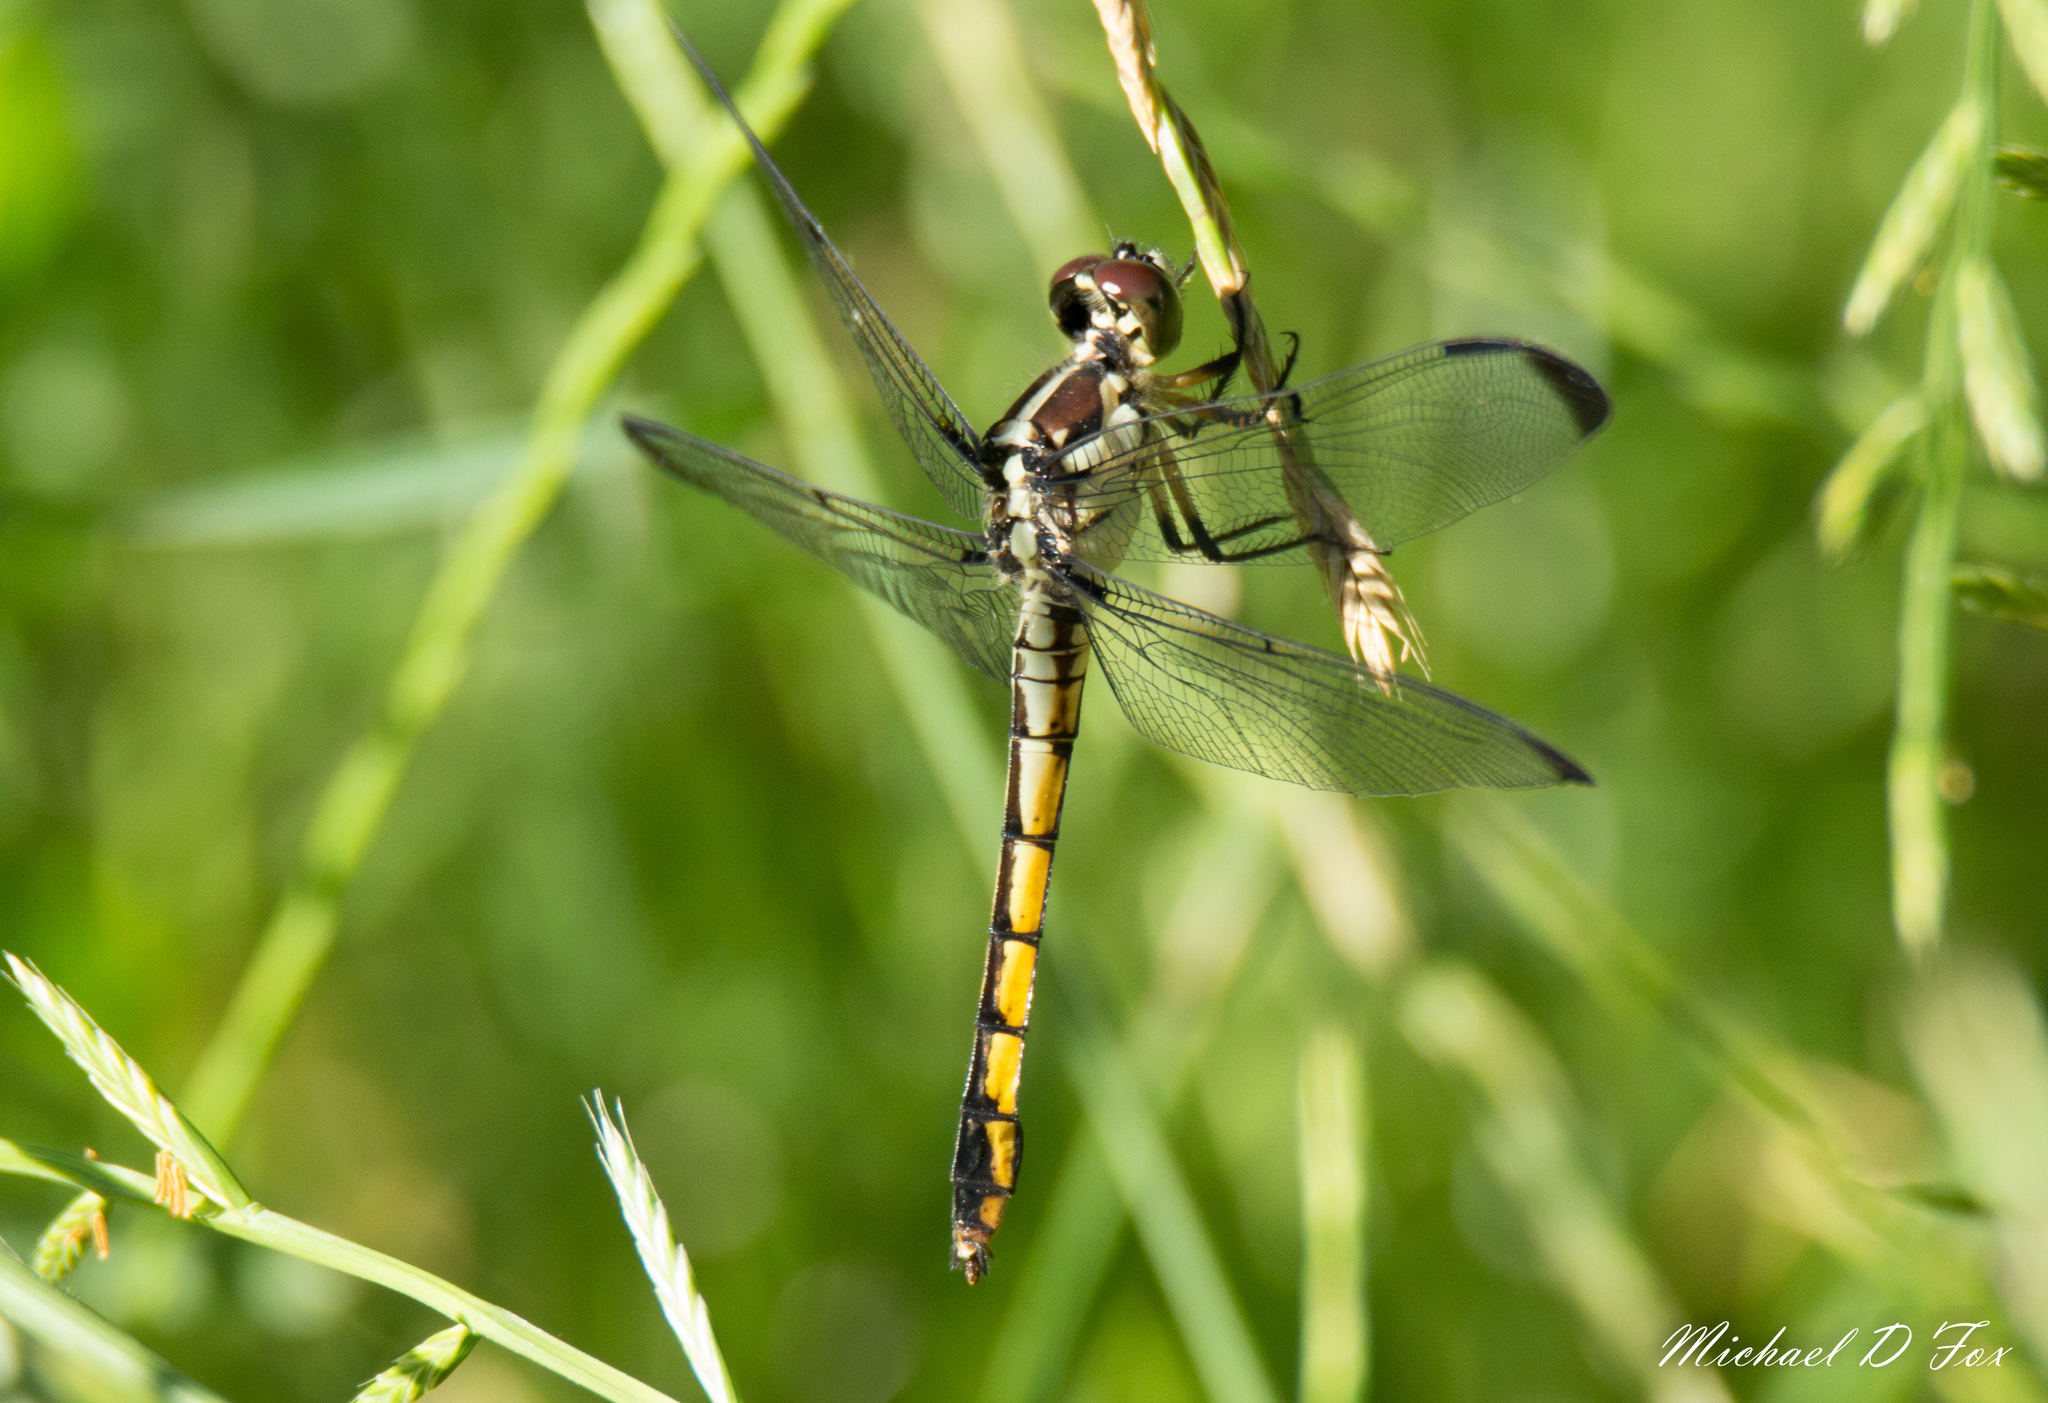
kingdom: Animalia
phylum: Arthropoda
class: Insecta
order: Odonata
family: Libellulidae
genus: Libellula
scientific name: Libellula vibrans
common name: Great blue skimmer
